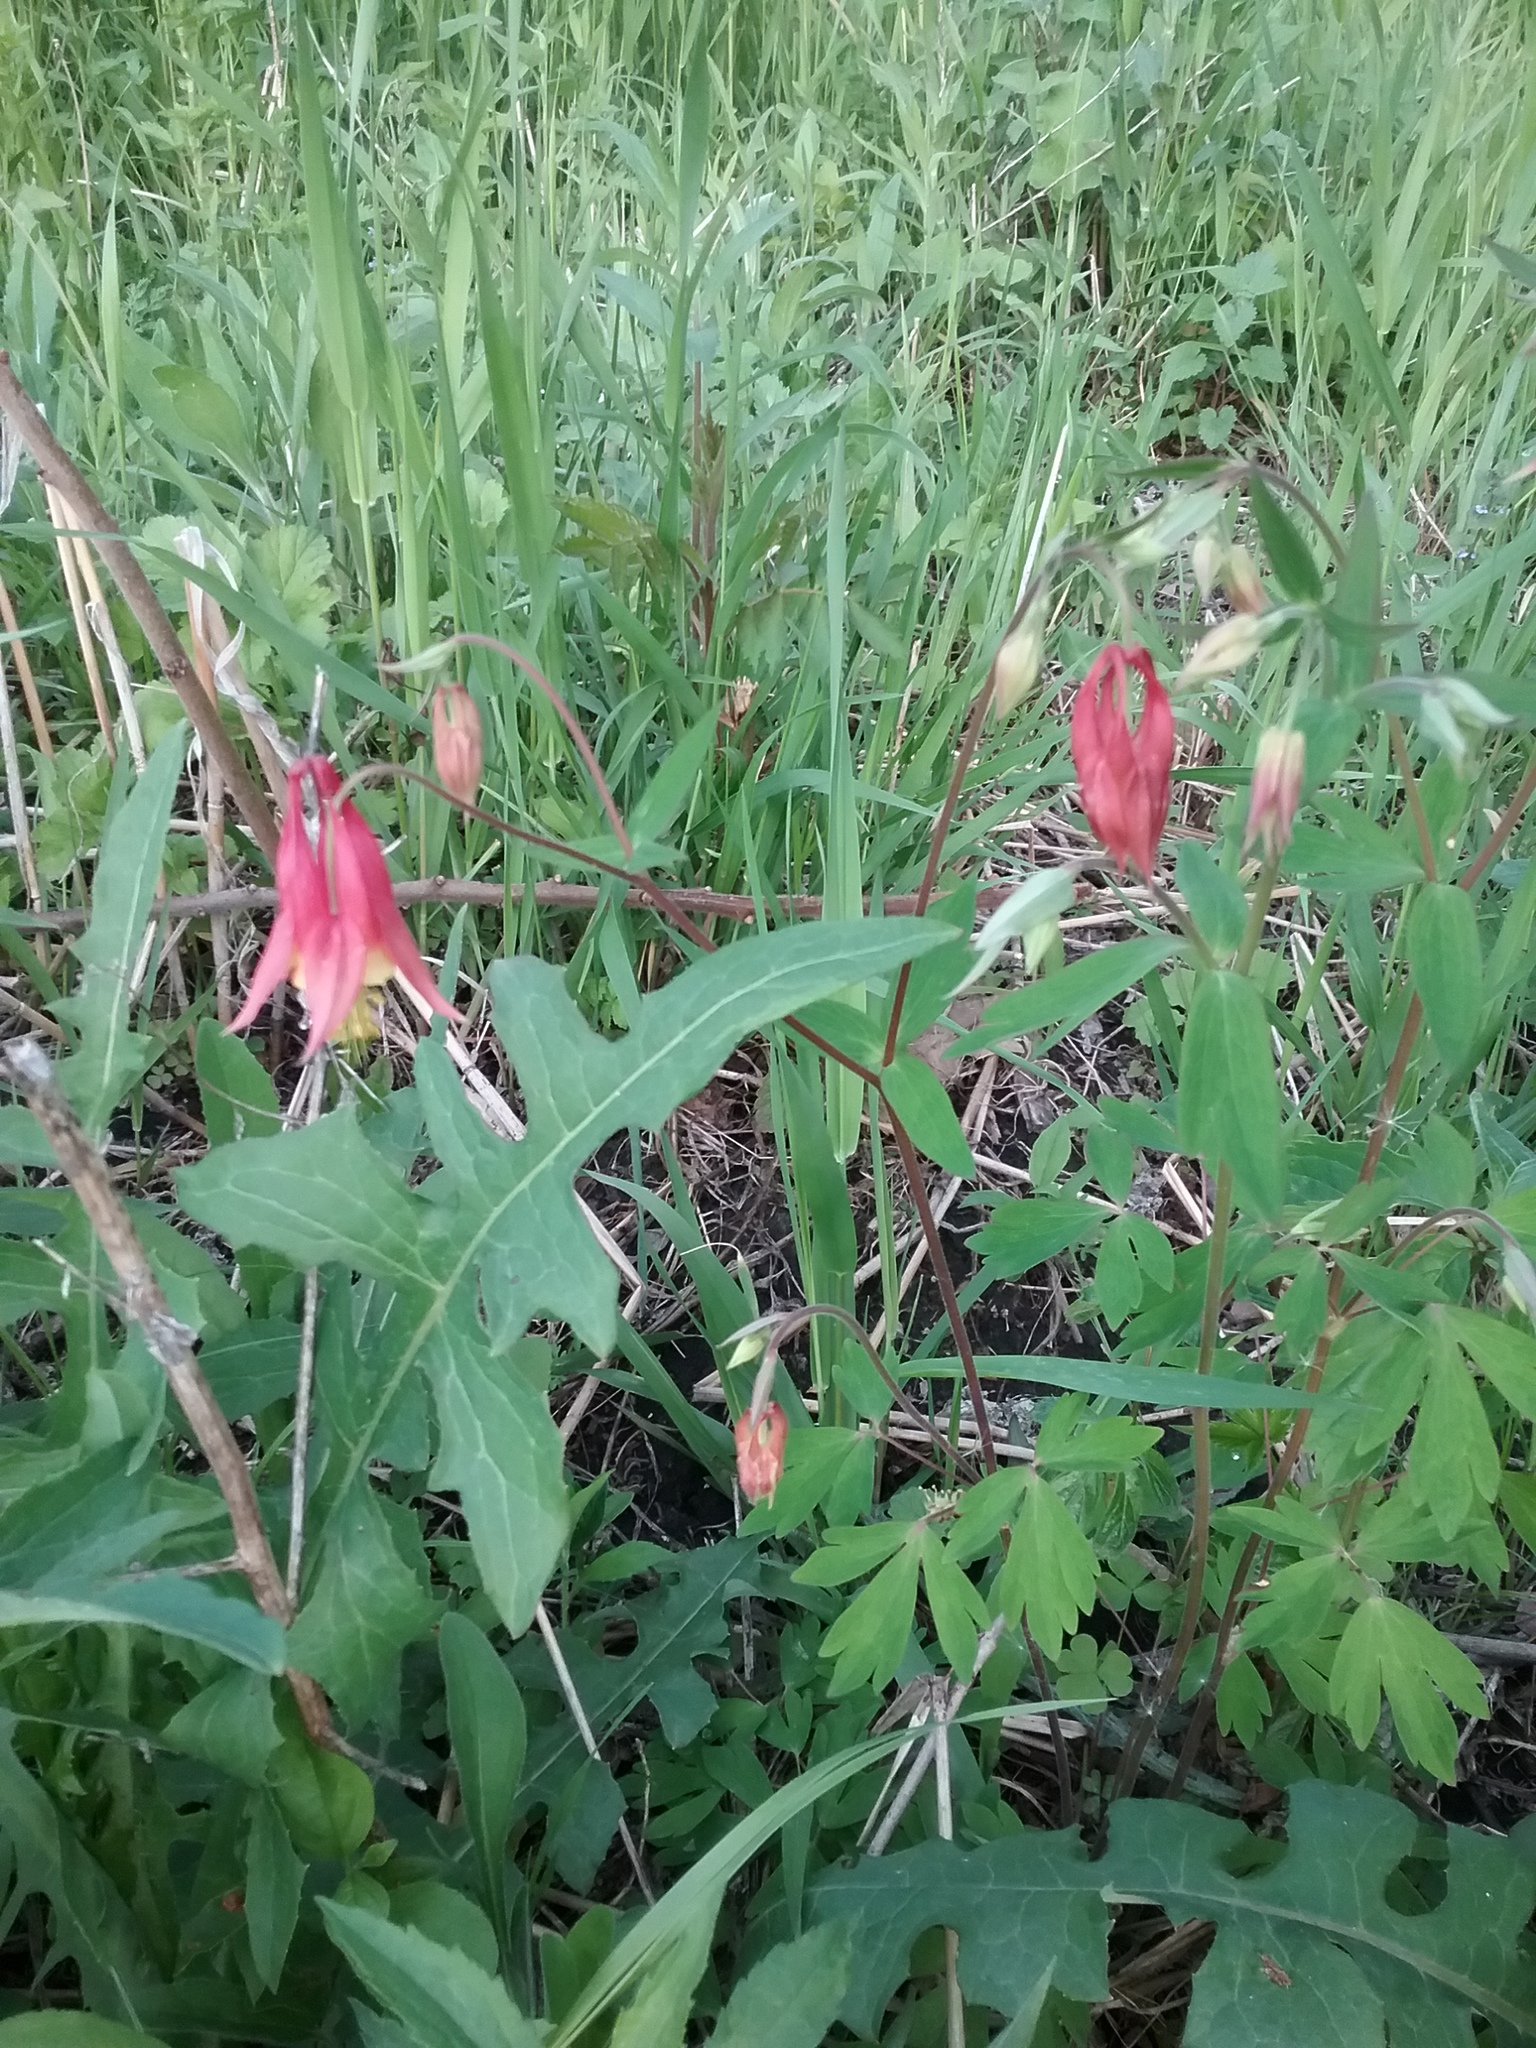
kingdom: Plantae
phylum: Tracheophyta
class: Magnoliopsida
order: Ranunculales
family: Ranunculaceae
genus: Aquilegia
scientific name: Aquilegia canadensis
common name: American columbine
